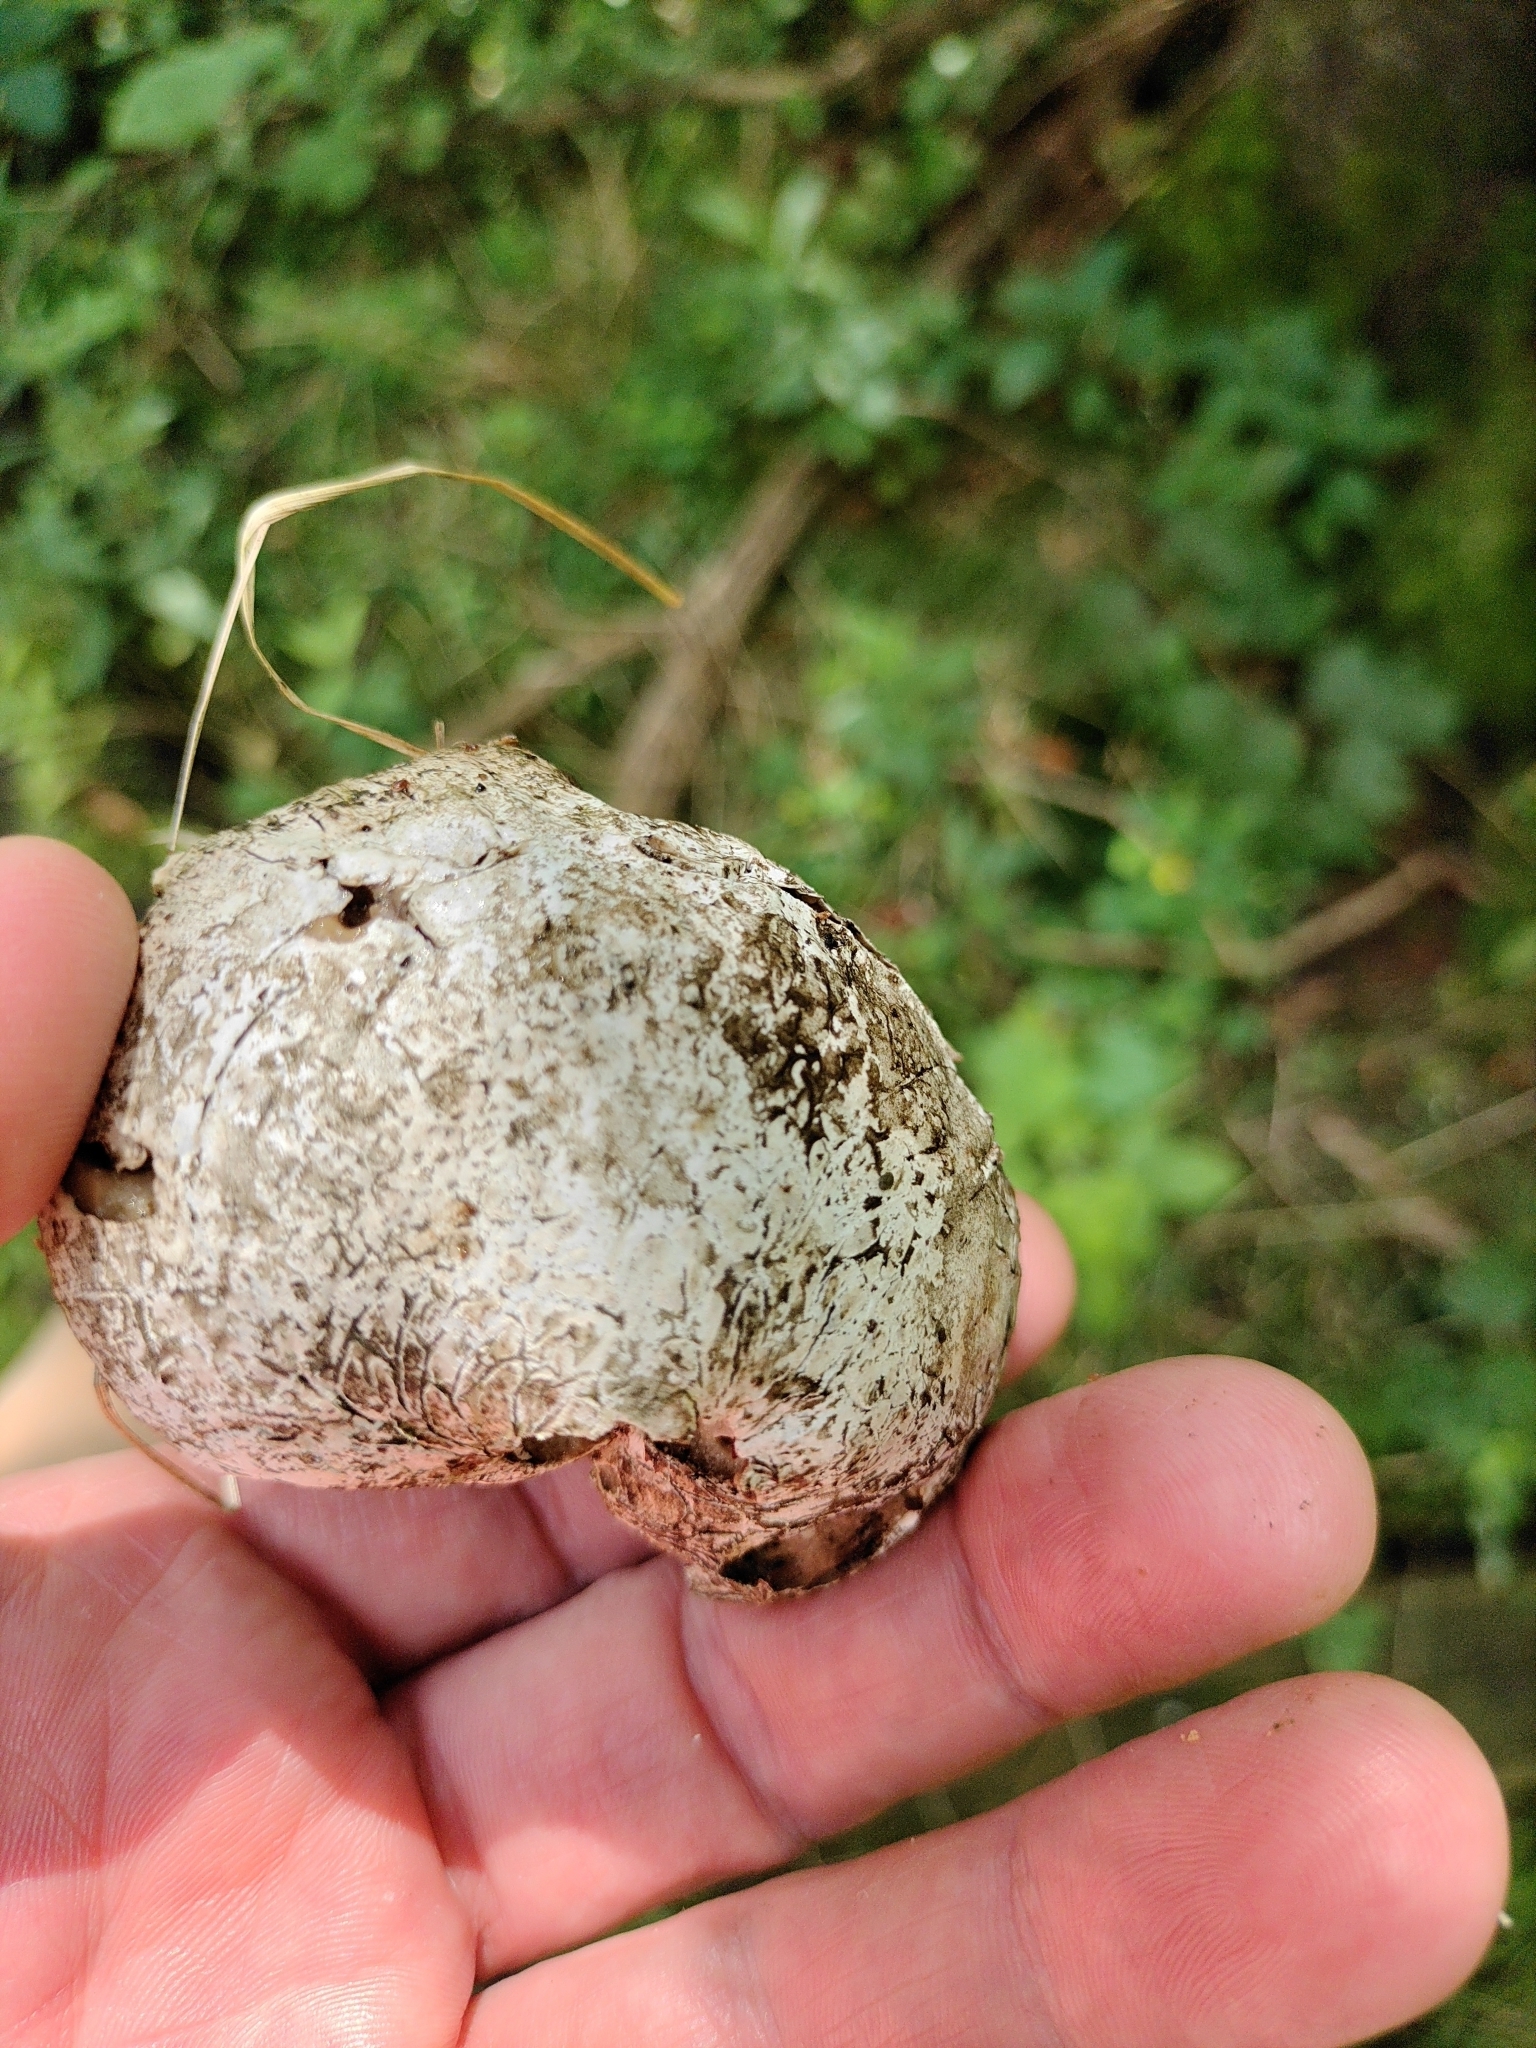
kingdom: Fungi
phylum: Basidiomycota
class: Agaricomycetes
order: Polyporales
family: Fomitopsidaceae
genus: Fomitopsis
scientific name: Fomitopsis betulina
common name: Birch polypore
